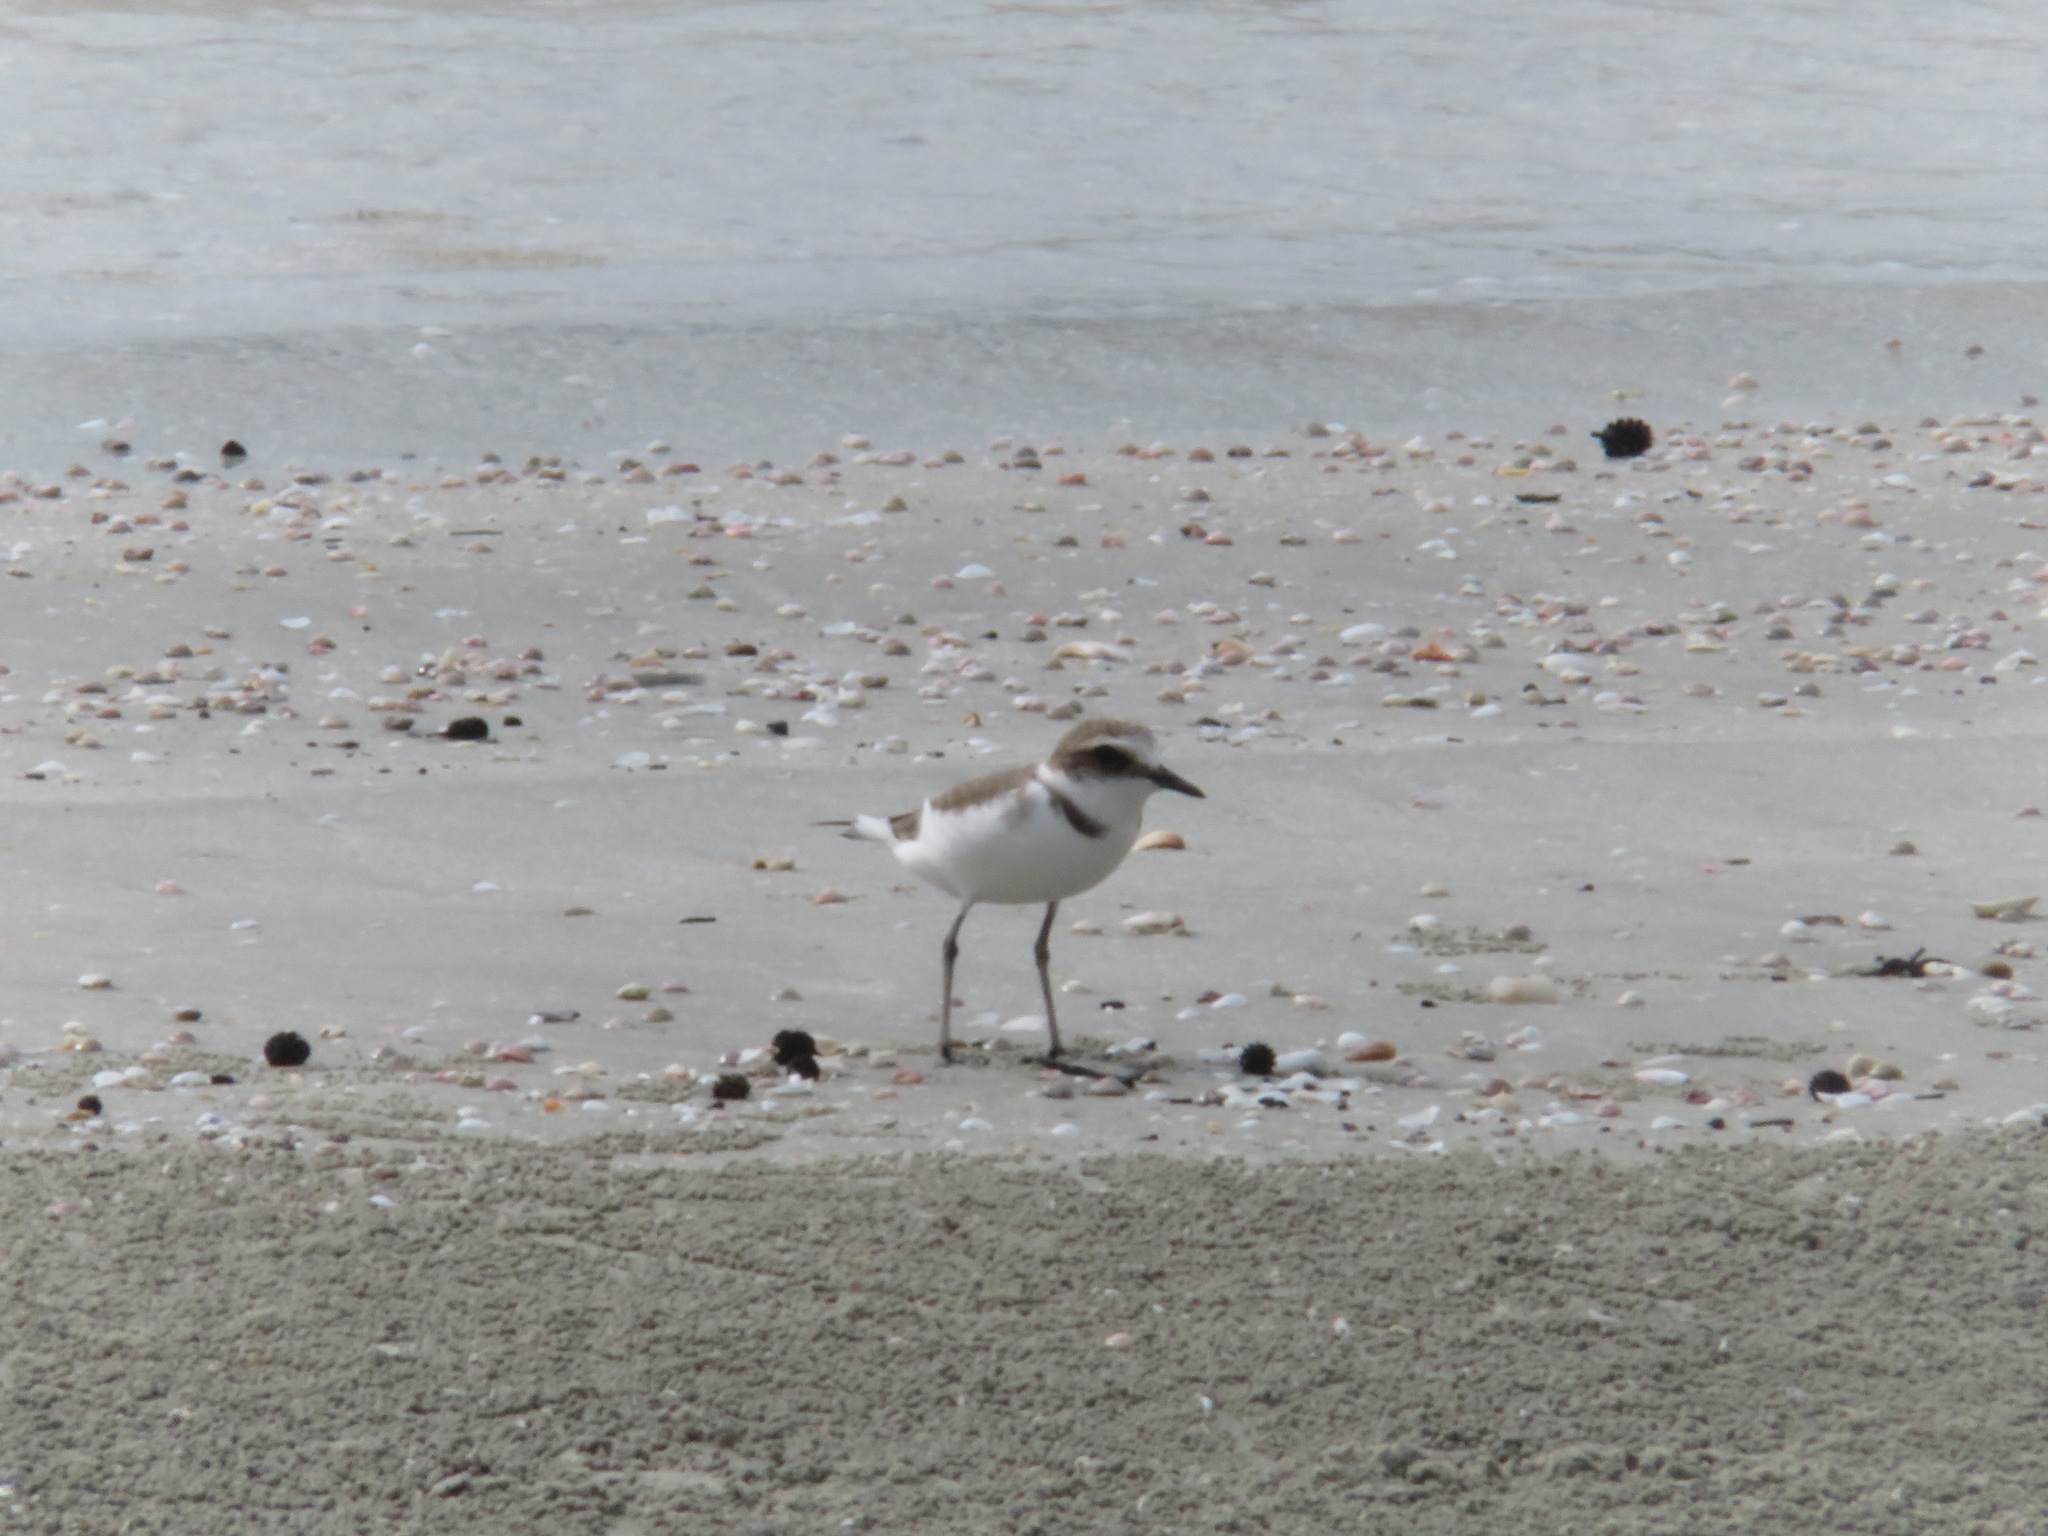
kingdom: Animalia
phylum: Chordata
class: Aves
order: Charadriiformes
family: Charadriidae
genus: Charadrius
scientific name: Charadrius alexandrinus
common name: Kentish plover
